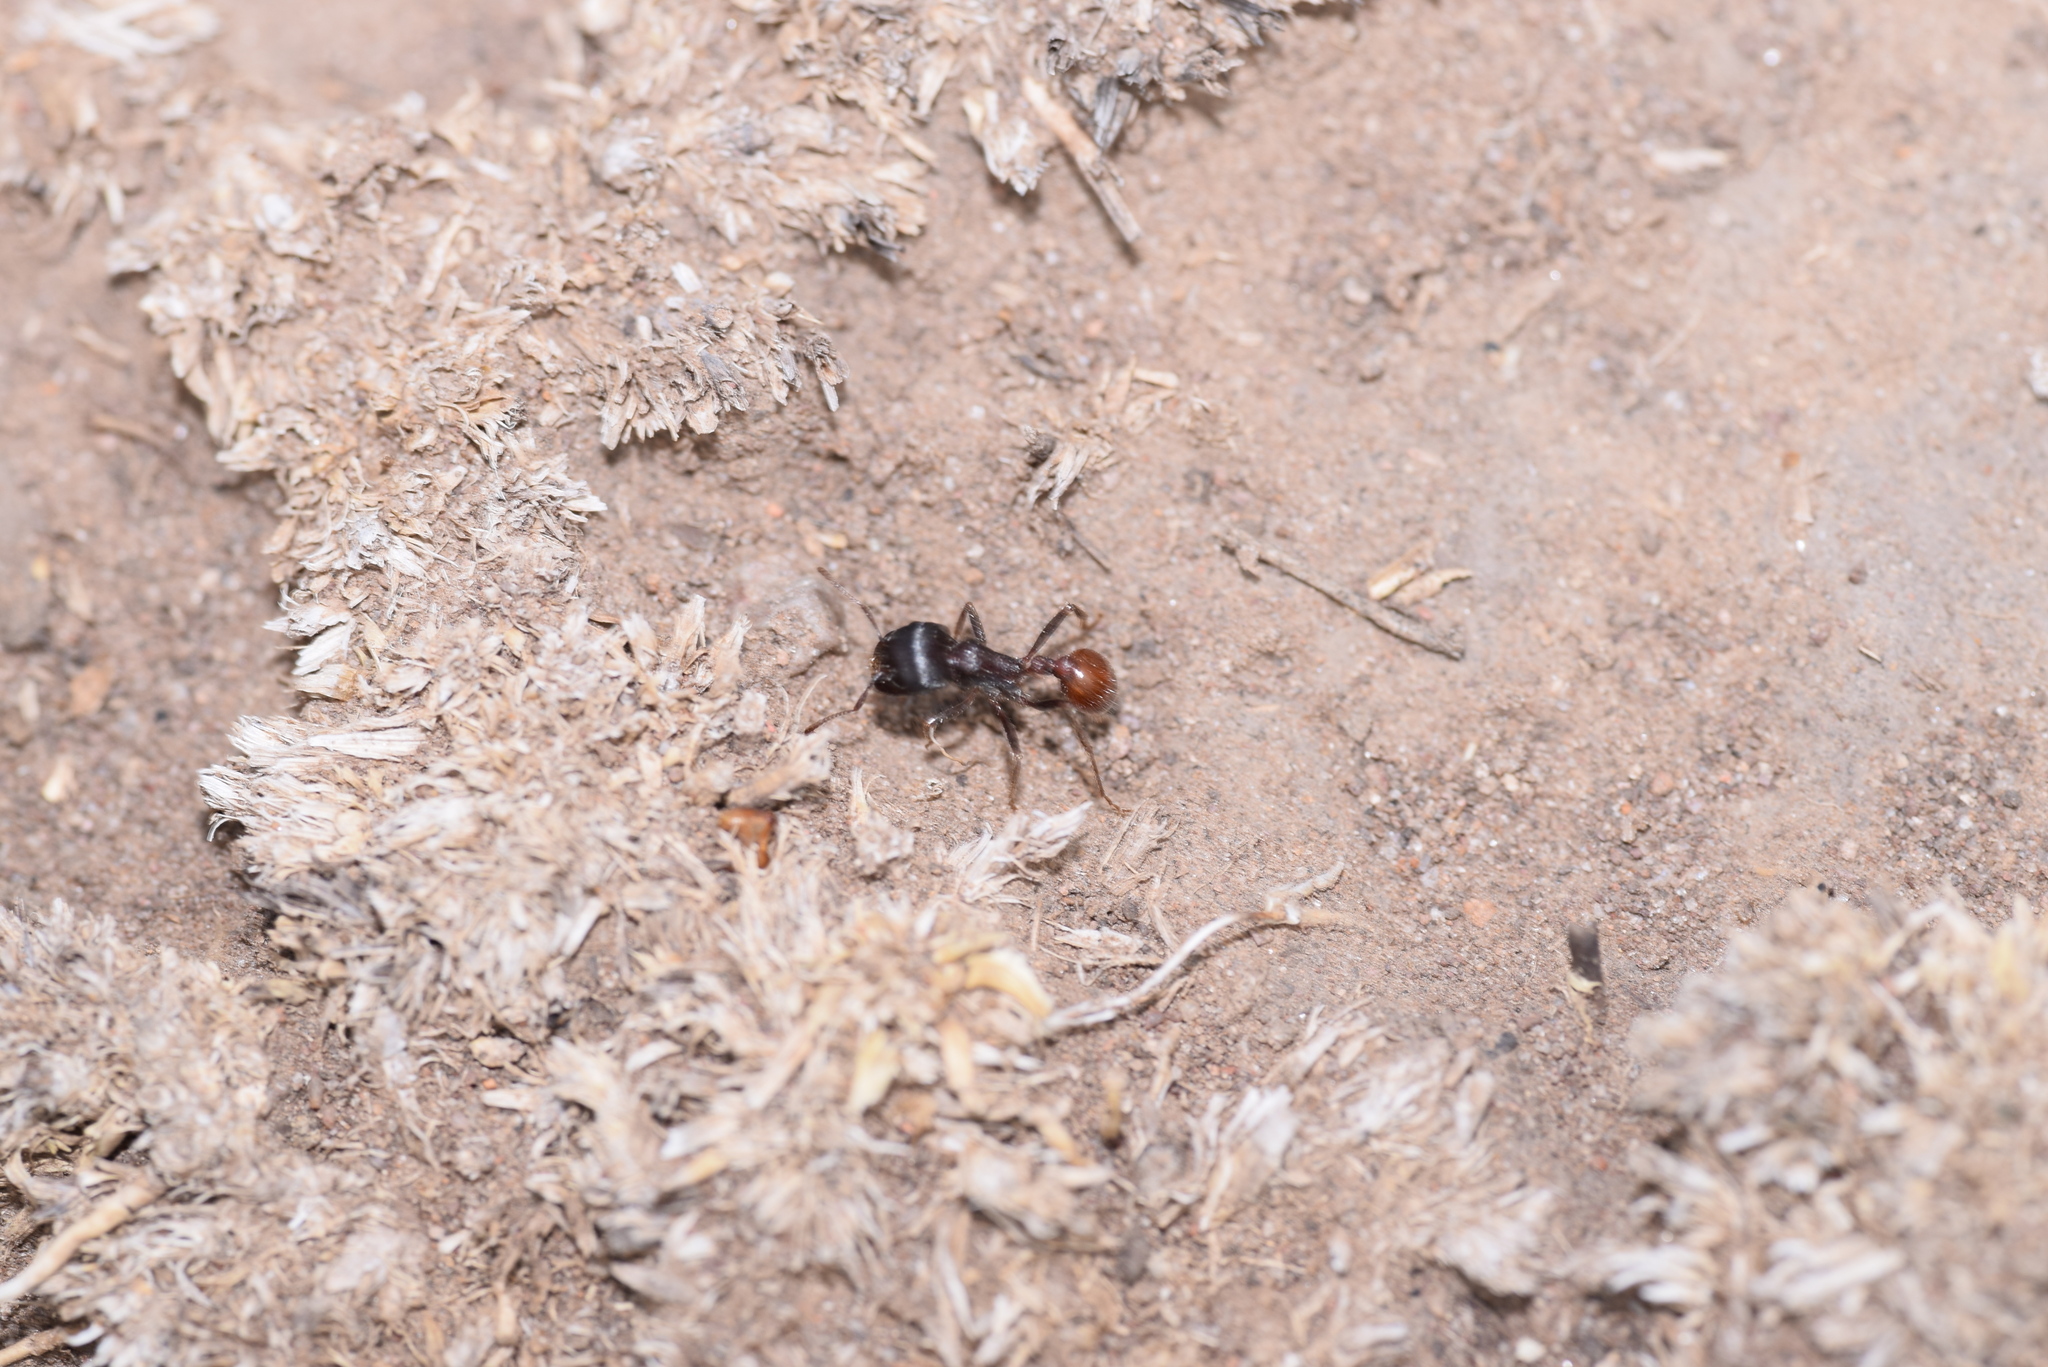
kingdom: Animalia
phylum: Arthropoda
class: Insecta
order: Hymenoptera
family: Formicidae
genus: Pogonomyrmex
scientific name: Pogonomyrmex rugosus
